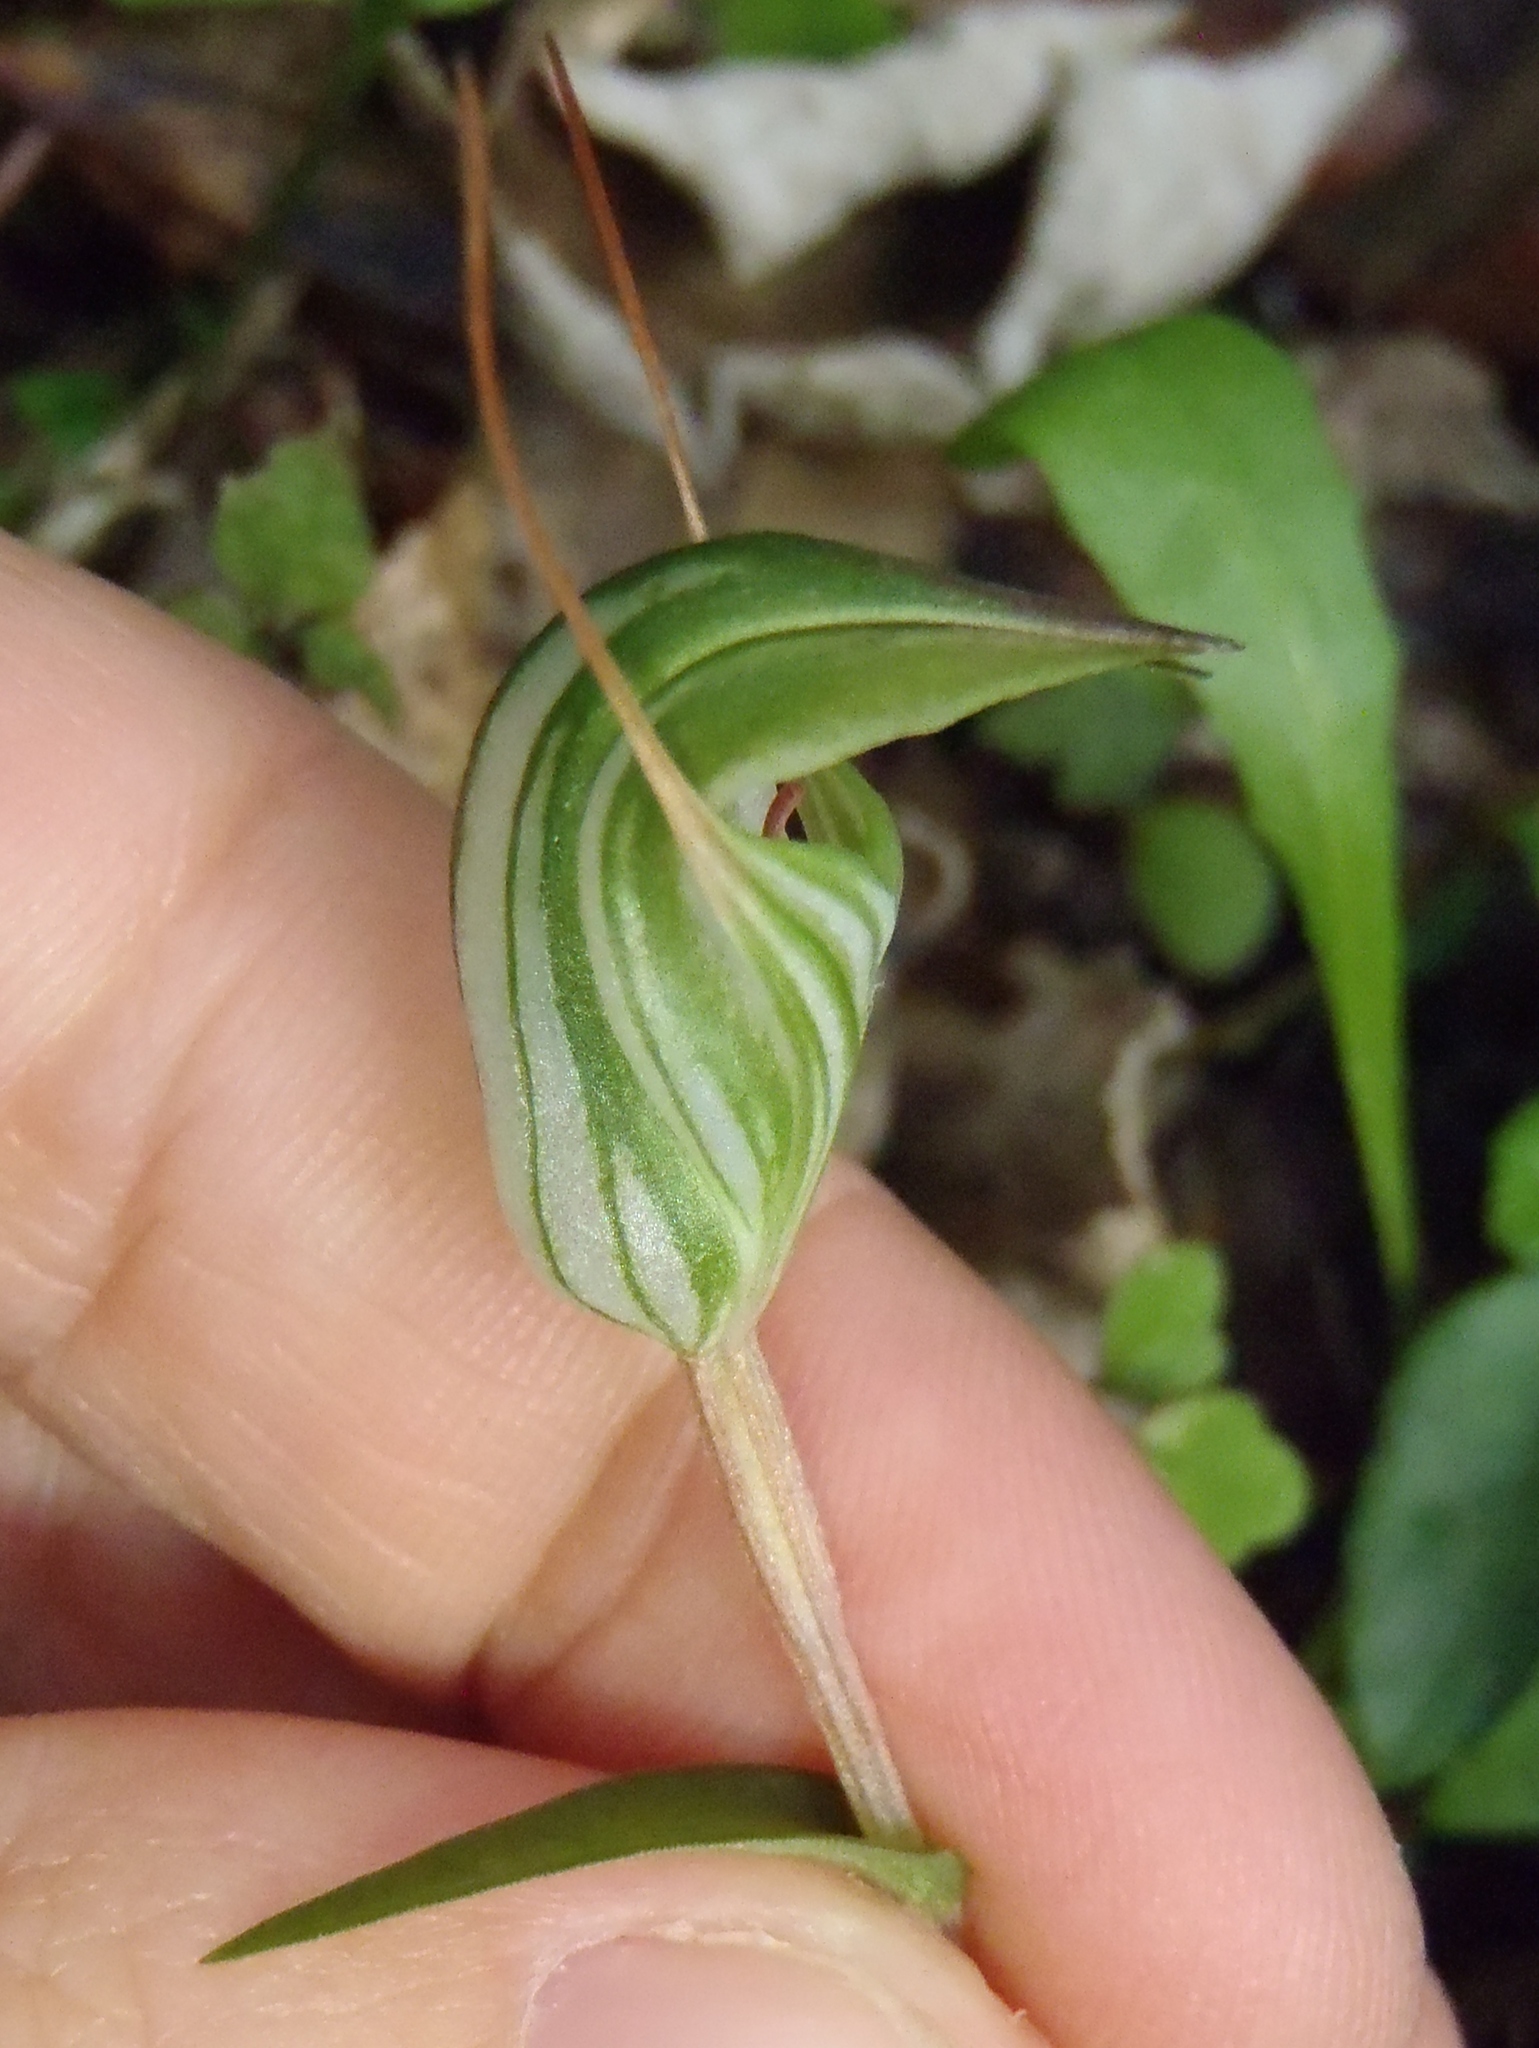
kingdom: Plantae
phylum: Tracheophyta
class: Liliopsida
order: Asparagales
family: Orchidaceae
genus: Pterostylis
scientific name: Pterostylis alobula
